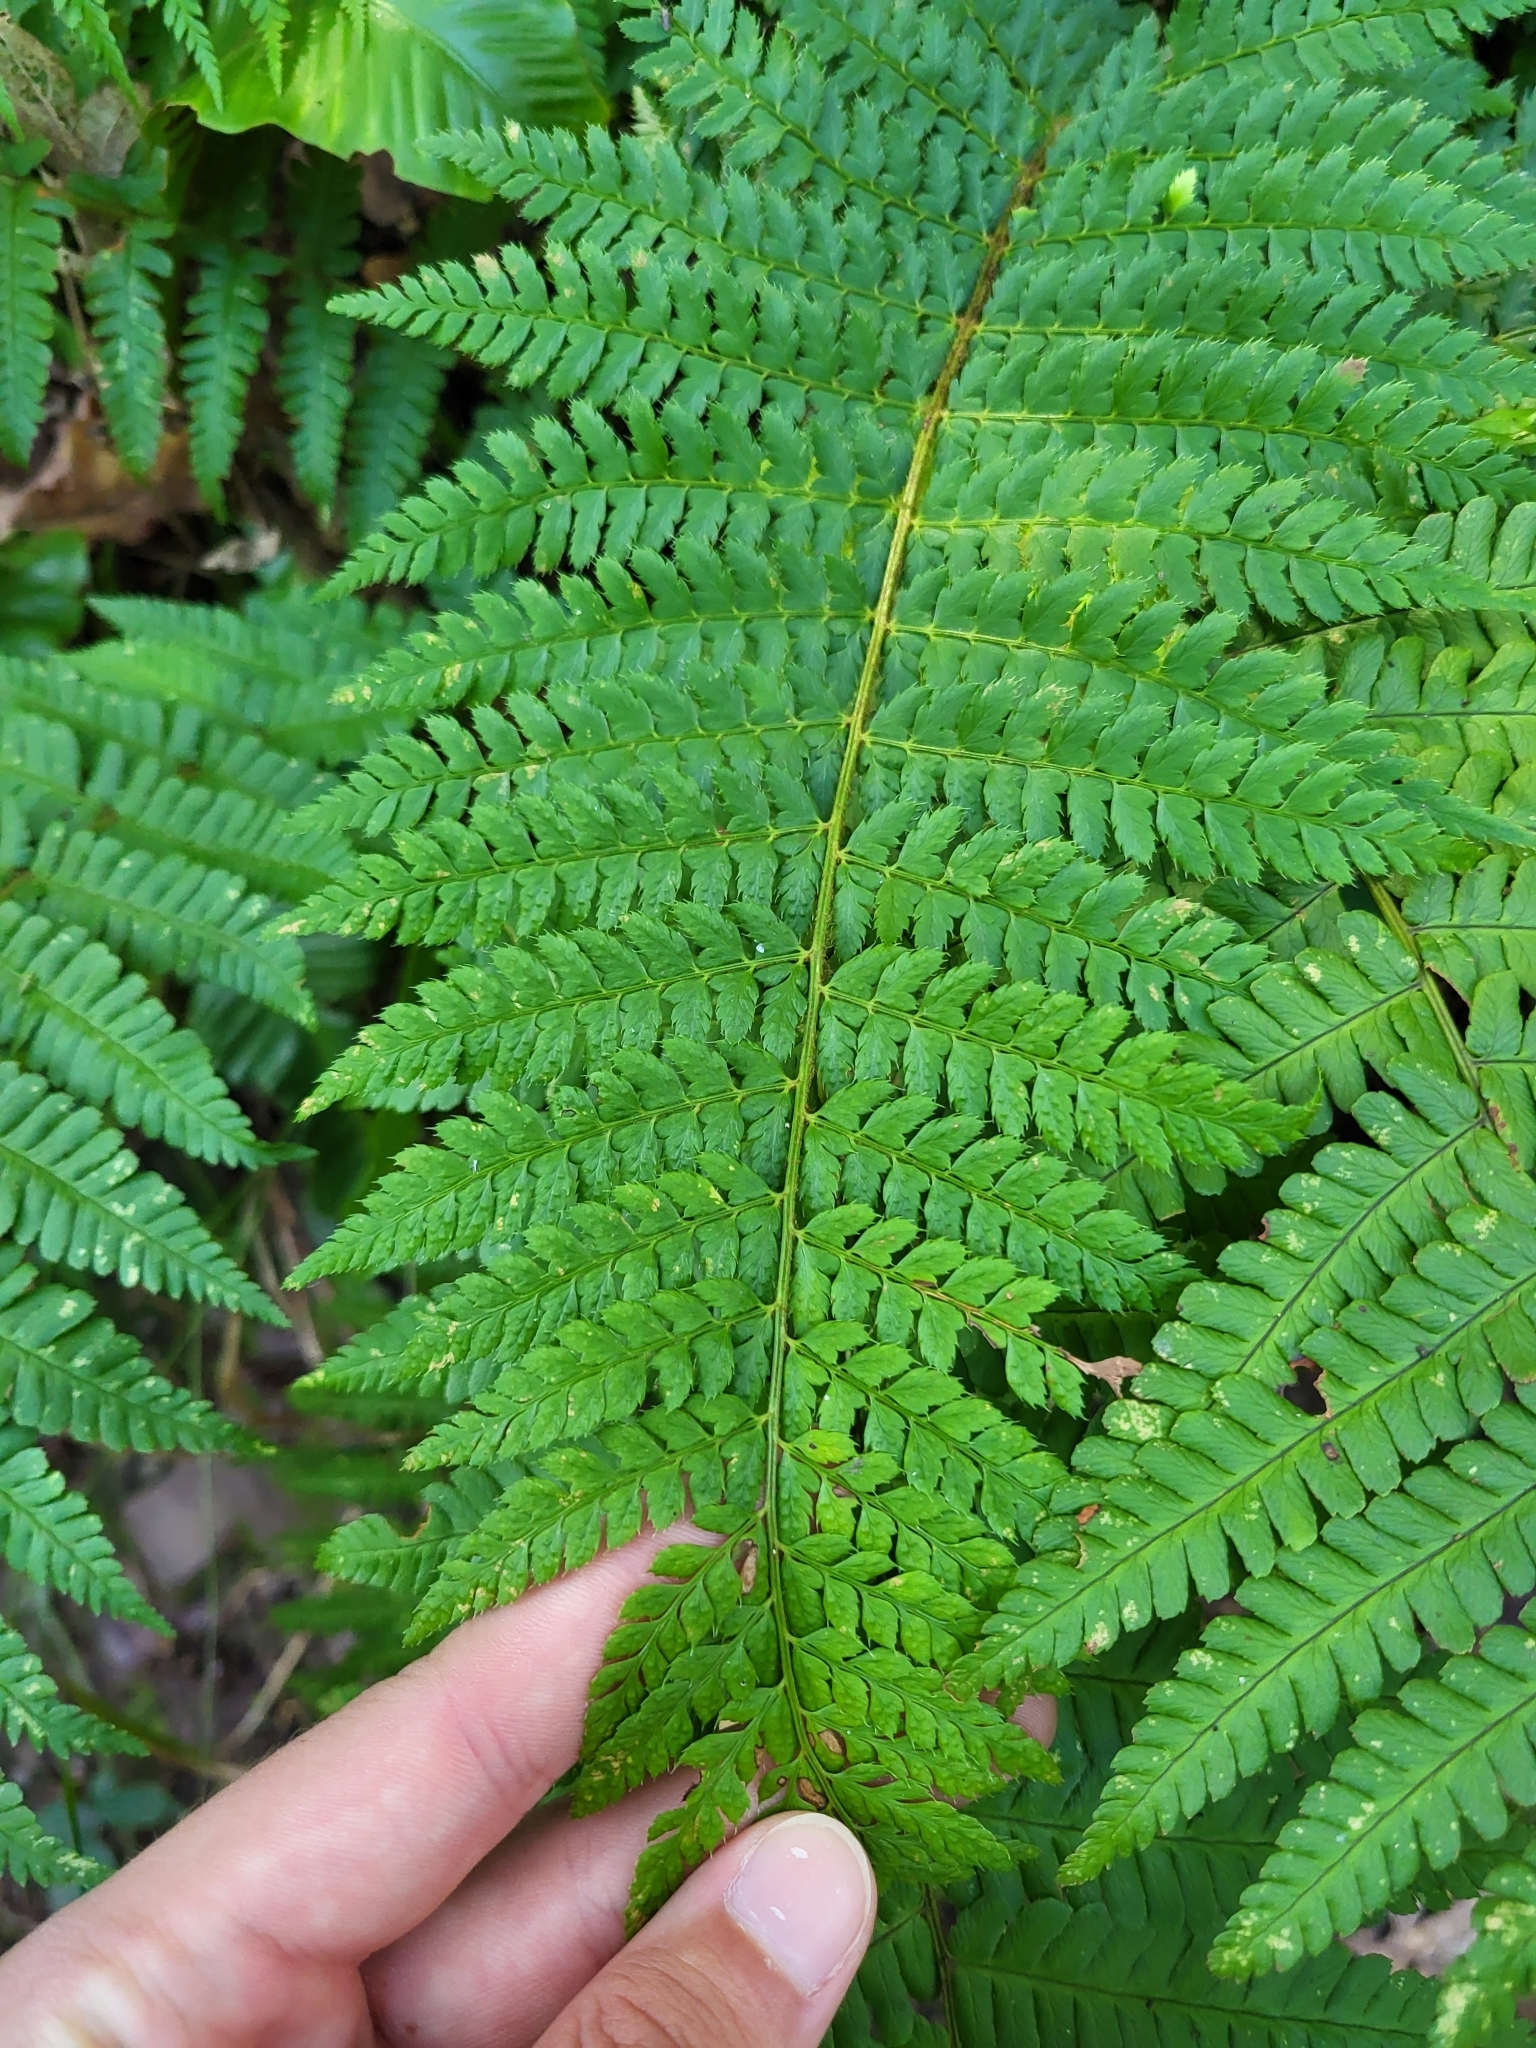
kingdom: Plantae
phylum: Tracheophyta
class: Polypodiopsida
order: Polypodiales
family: Dryopteridaceae
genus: Polystichum
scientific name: Polystichum setiferum
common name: Soft shield-fern
